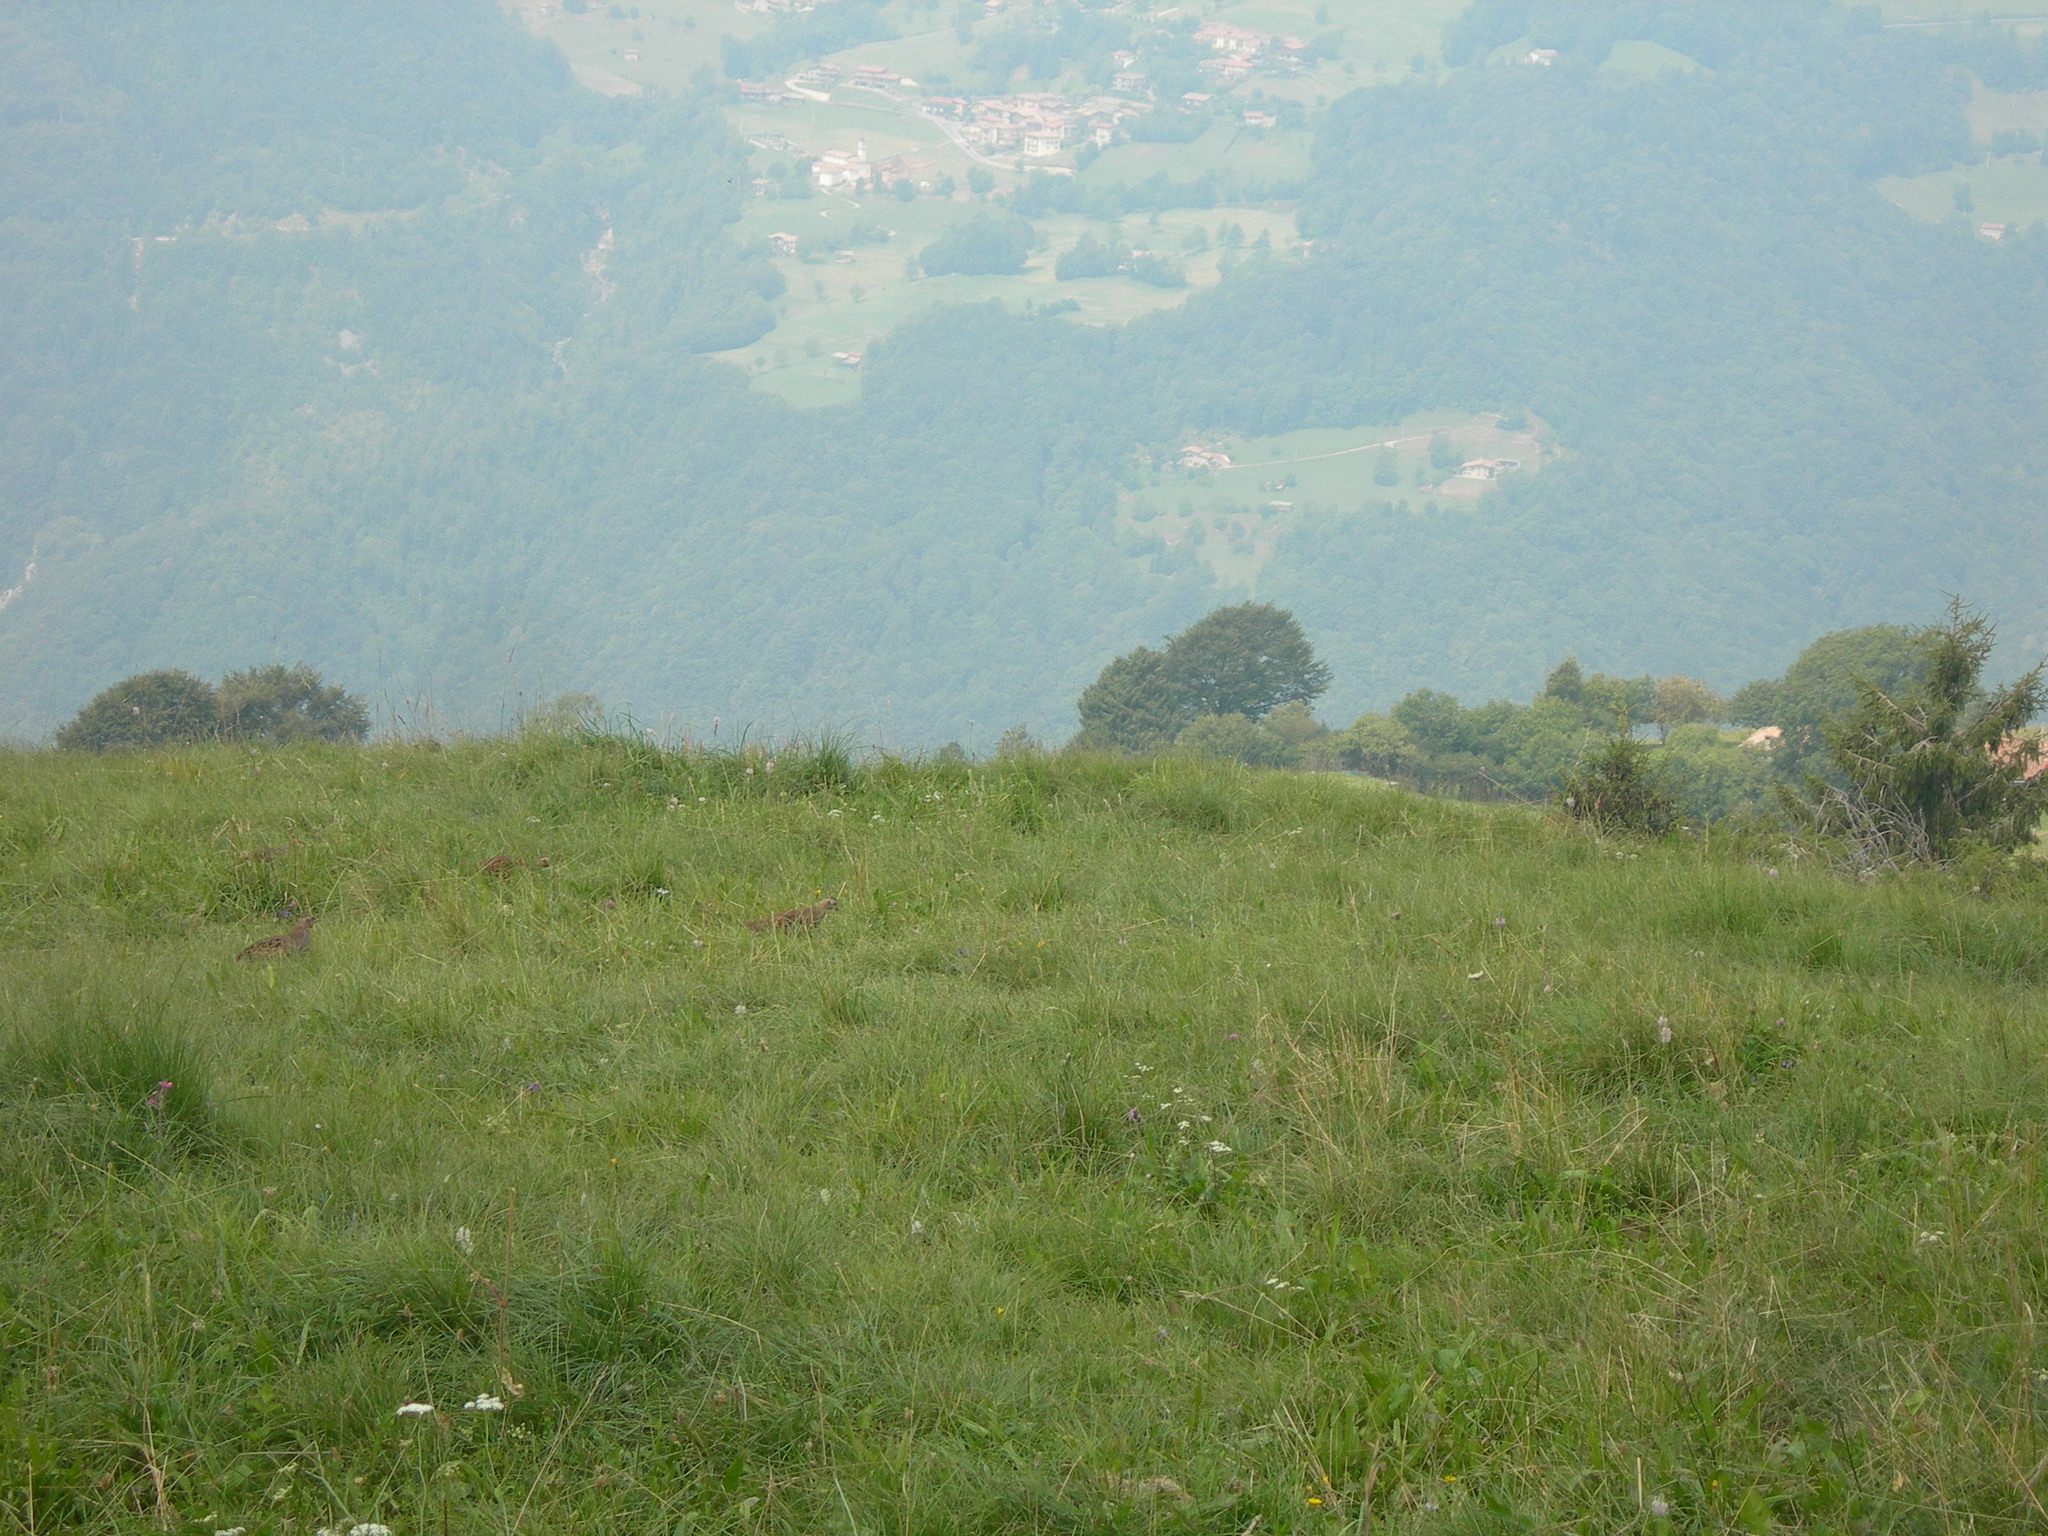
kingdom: Animalia
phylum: Chordata
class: Aves
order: Galliformes
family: Phasianidae
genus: Perdix
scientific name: Perdix perdix
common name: Grey partridge
